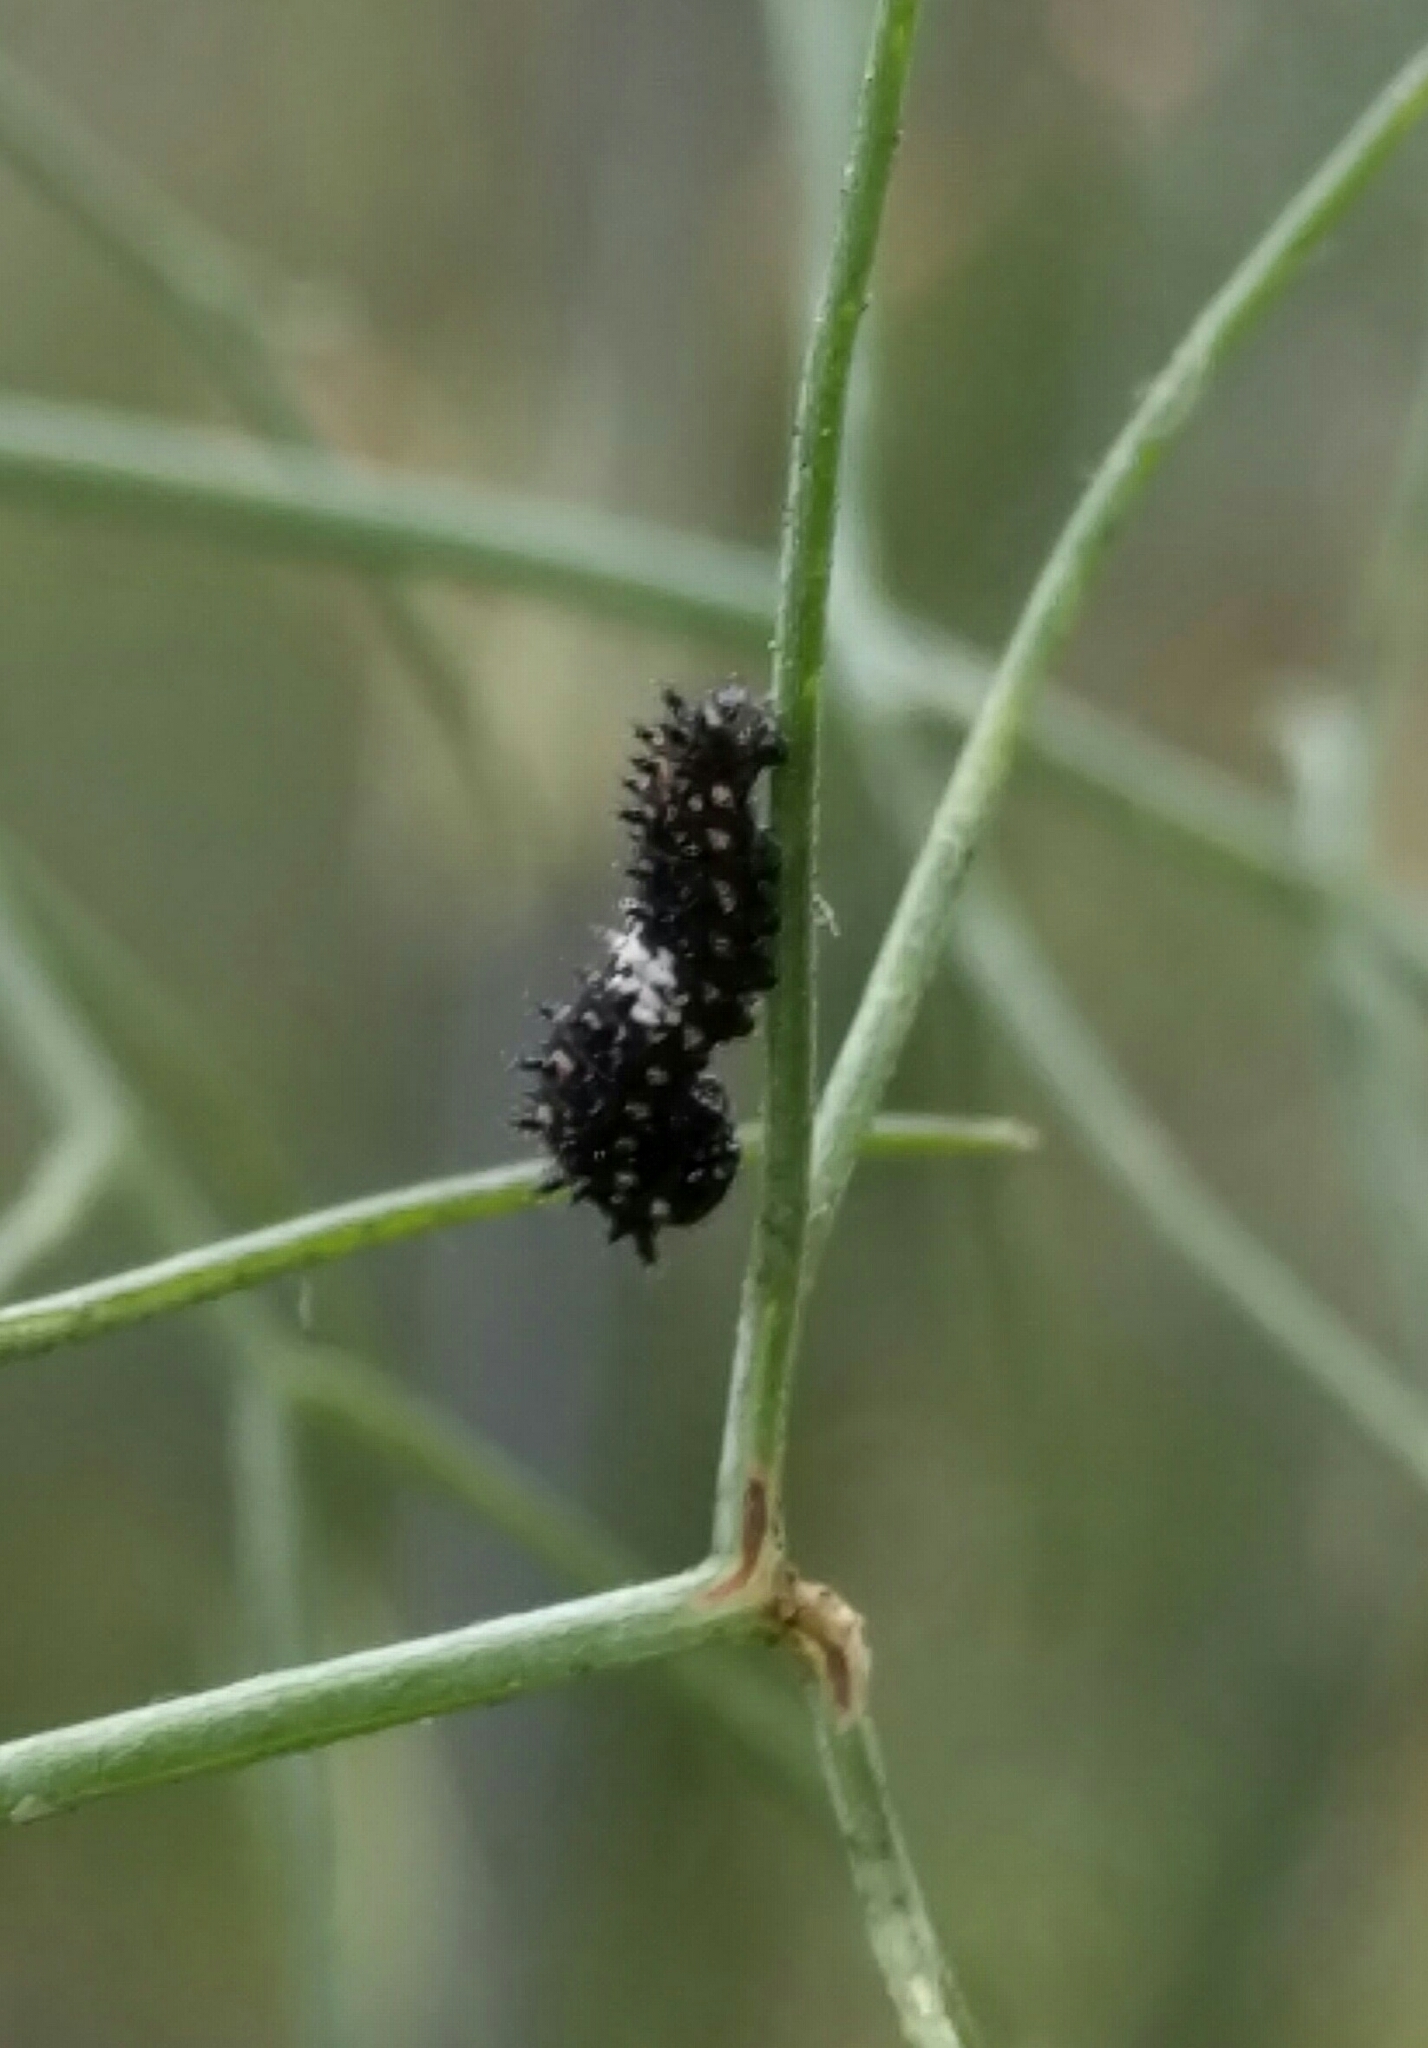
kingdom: Animalia
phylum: Arthropoda
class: Insecta
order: Lepidoptera
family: Papilionidae
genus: Papilio
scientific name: Papilio zelicaon
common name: Anise swallowtail
